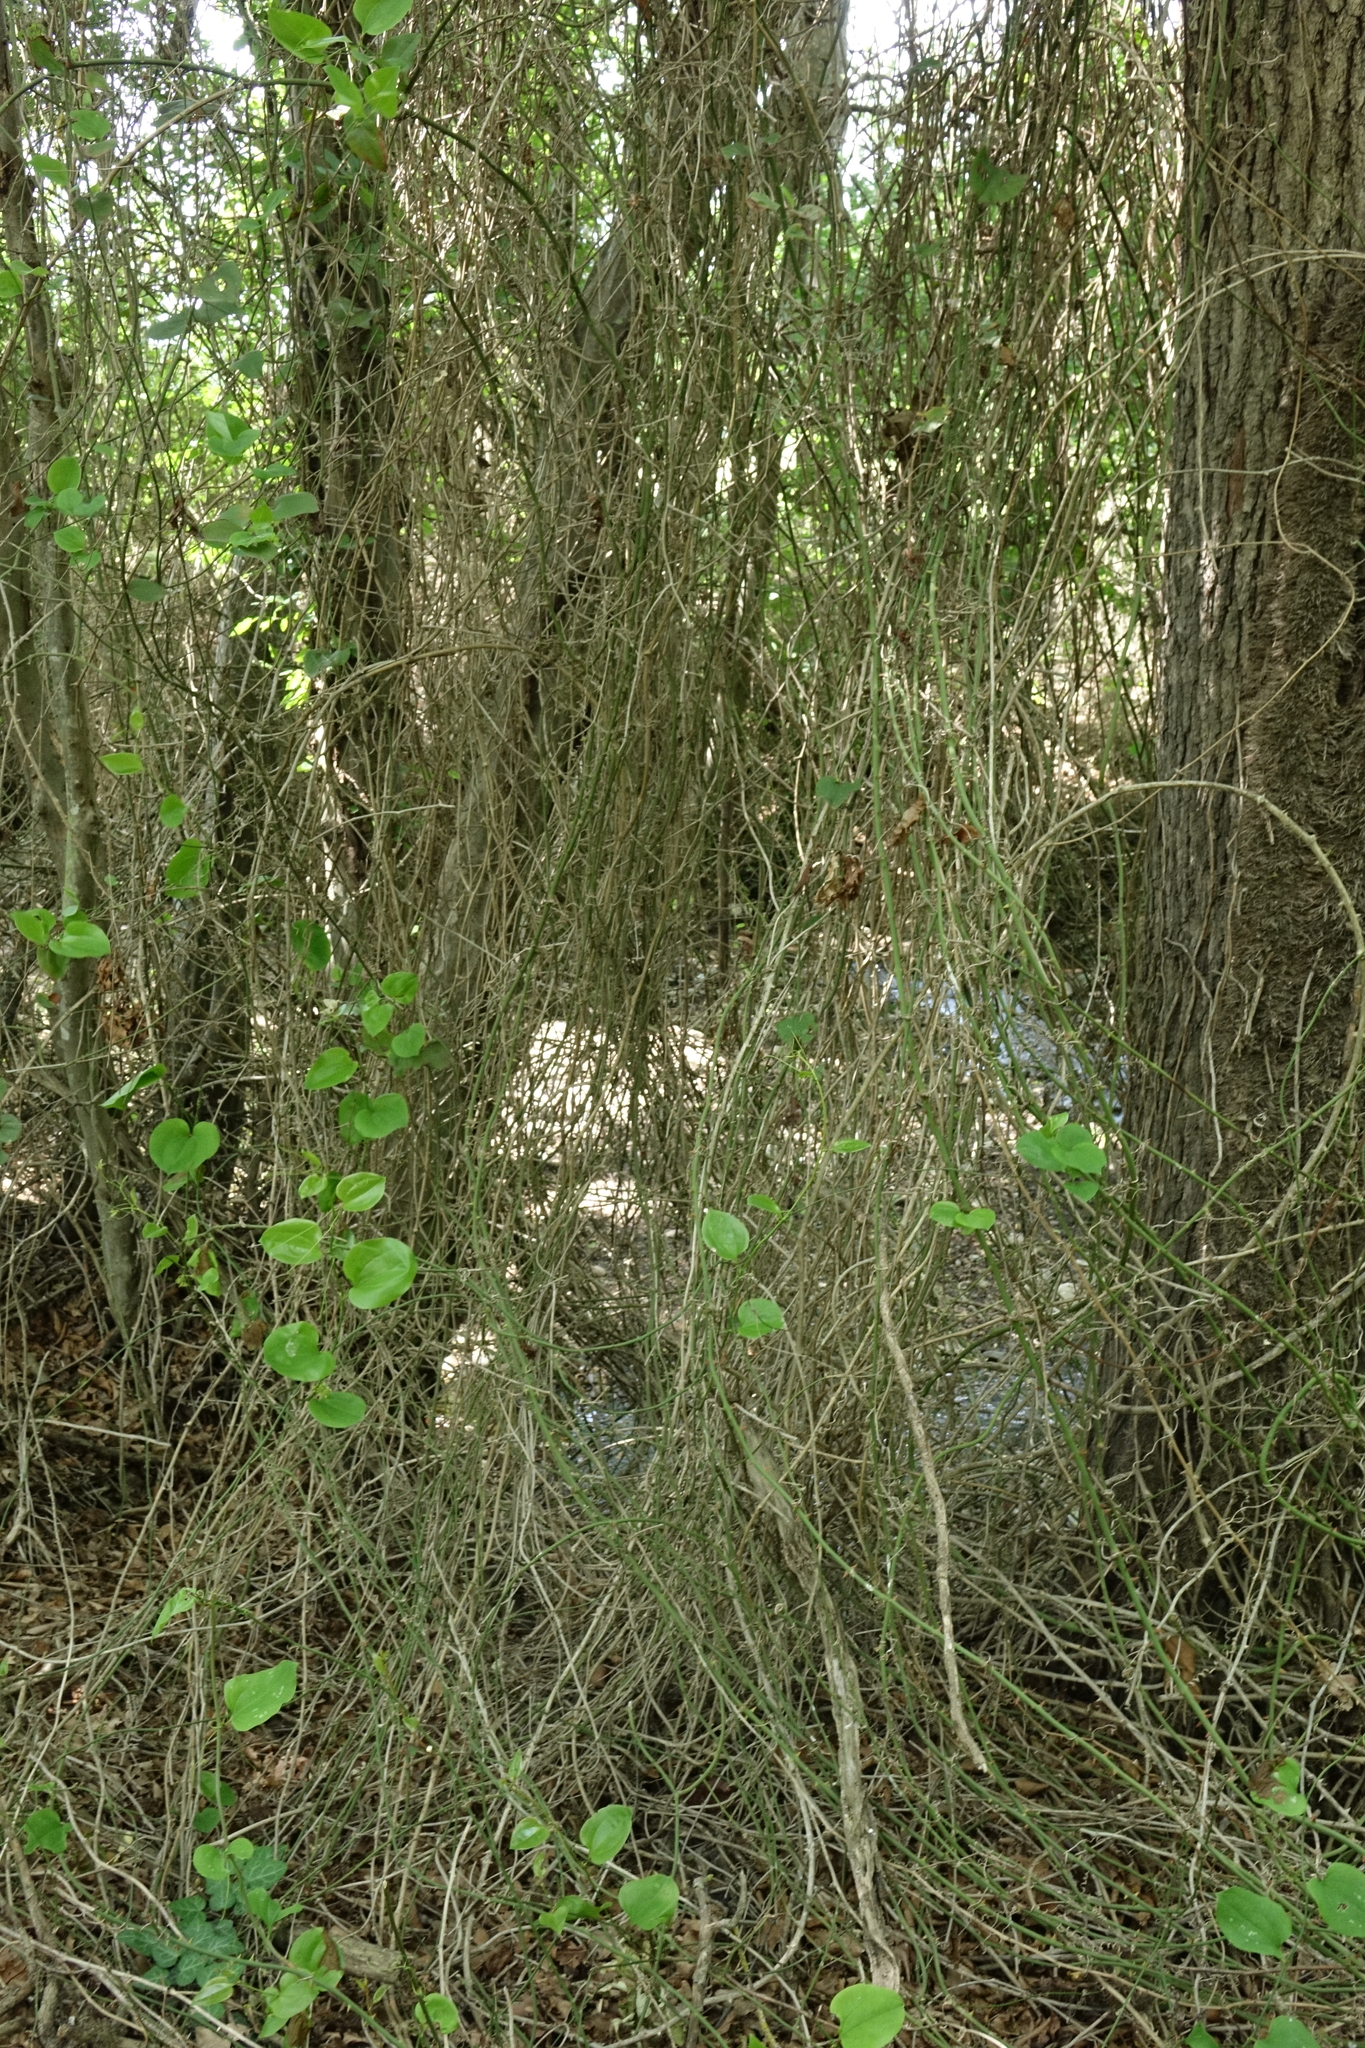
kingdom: Plantae
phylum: Tracheophyta
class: Liliopsida
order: Liliales
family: Smilacaceae
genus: Smilax
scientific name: Smilax excelsa
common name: Larger smilax
